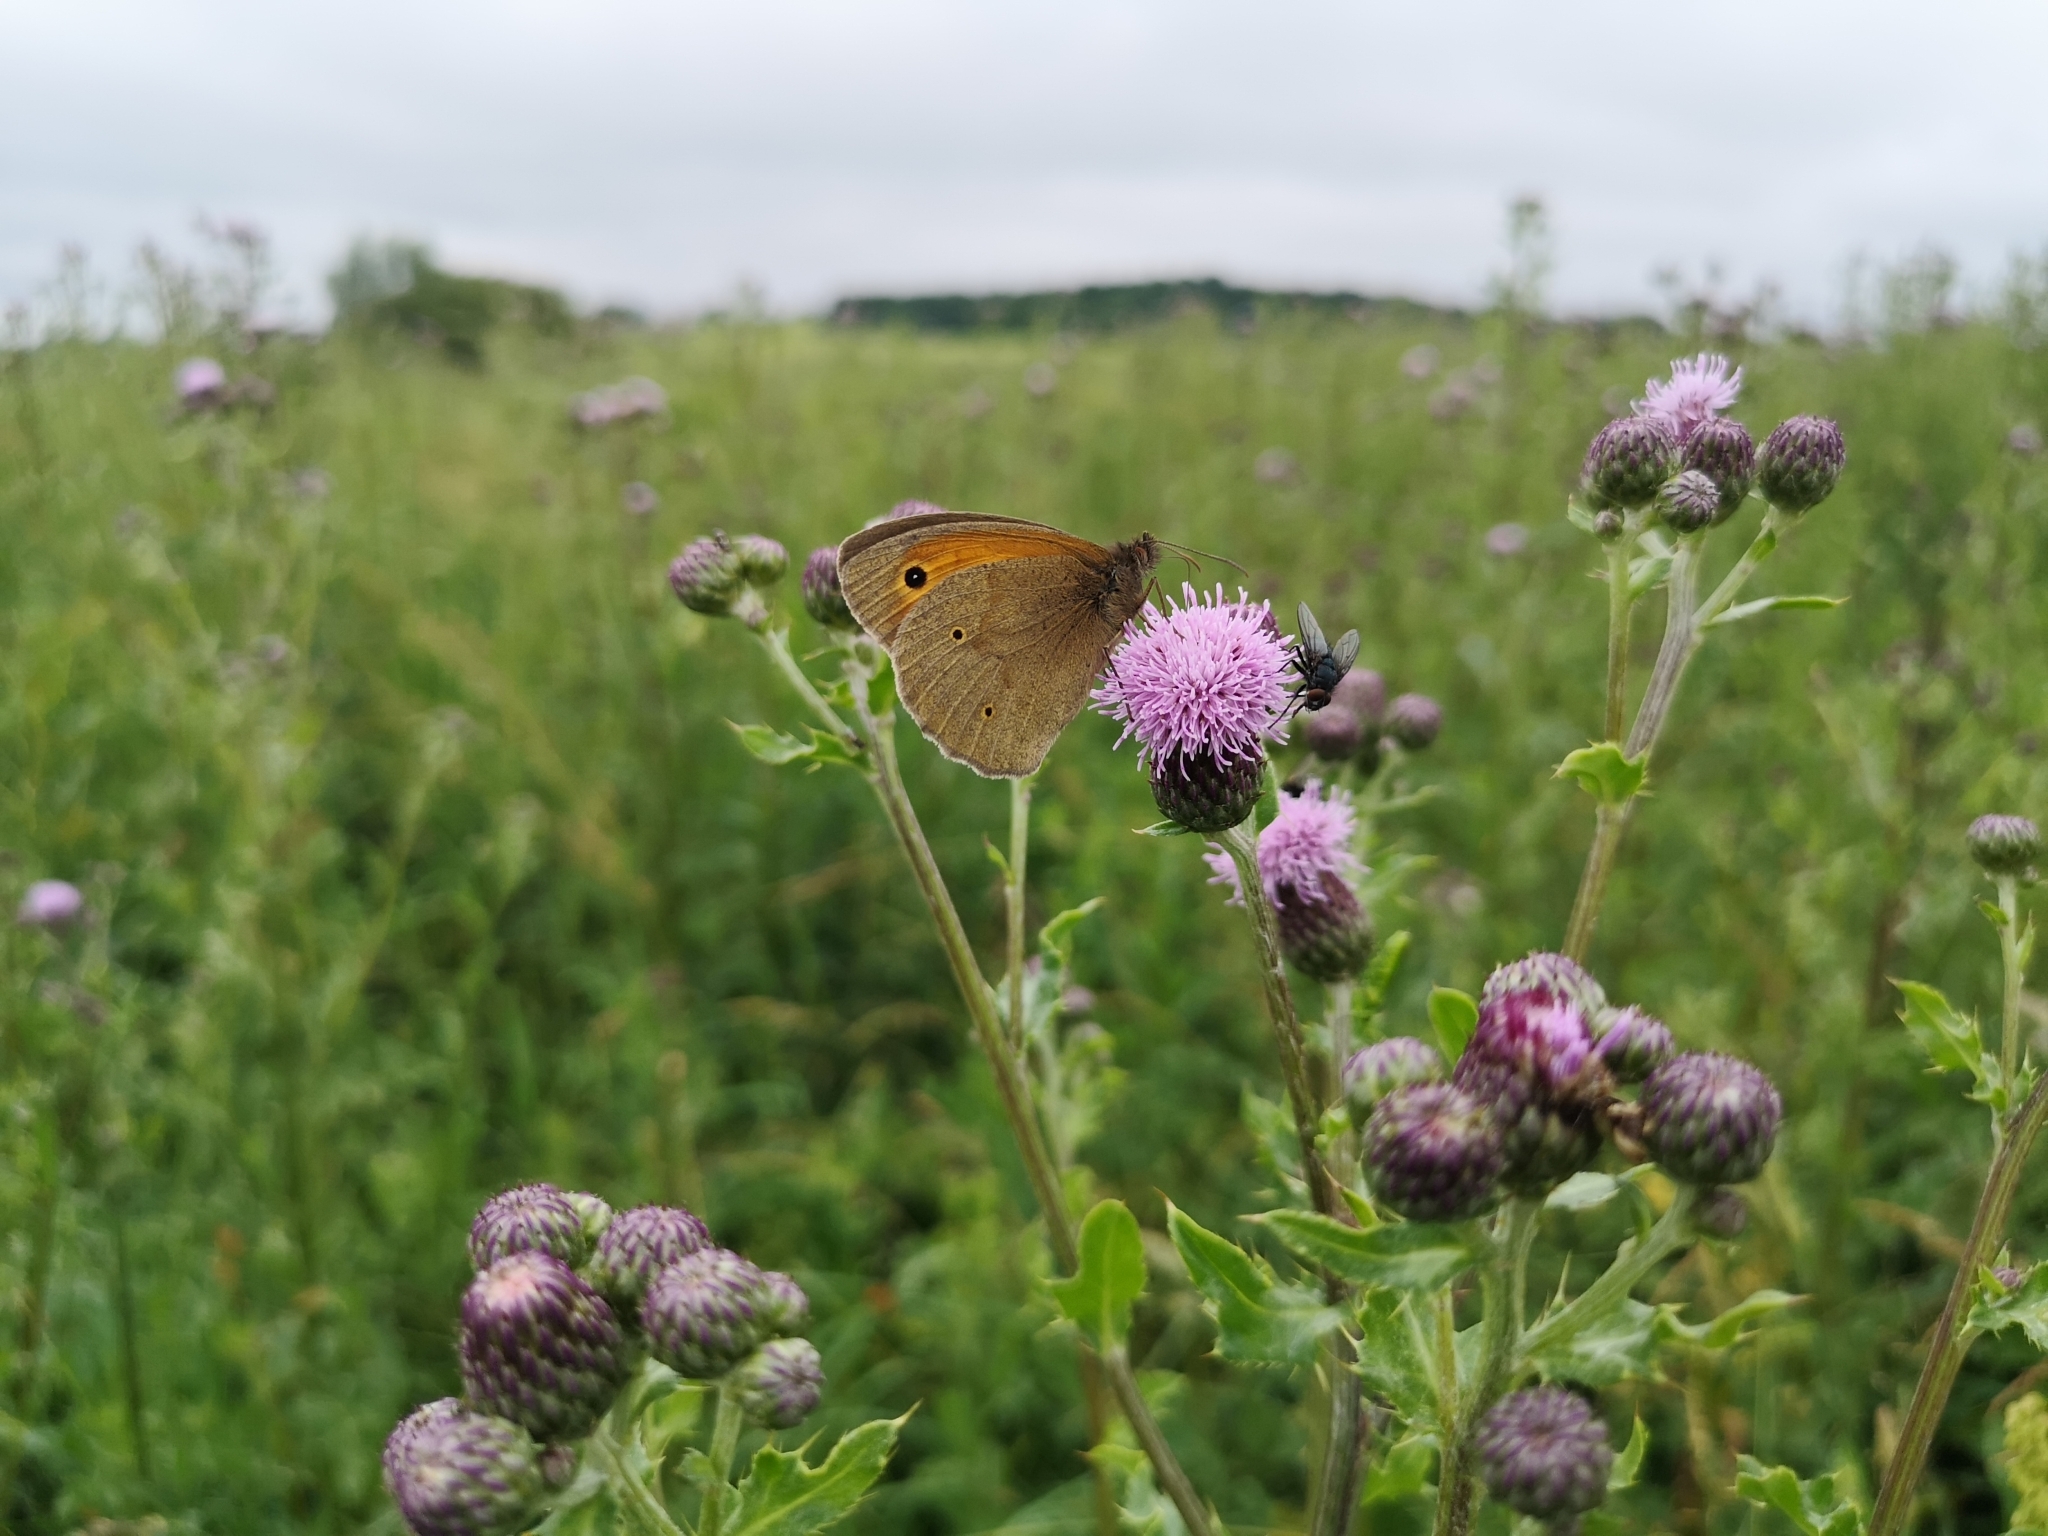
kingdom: Animalia
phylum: Arthropoda
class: Insecta
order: Lepidoptera
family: Nymphalidae
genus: Maniola
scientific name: Maniola jurtina
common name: Meadow brown
